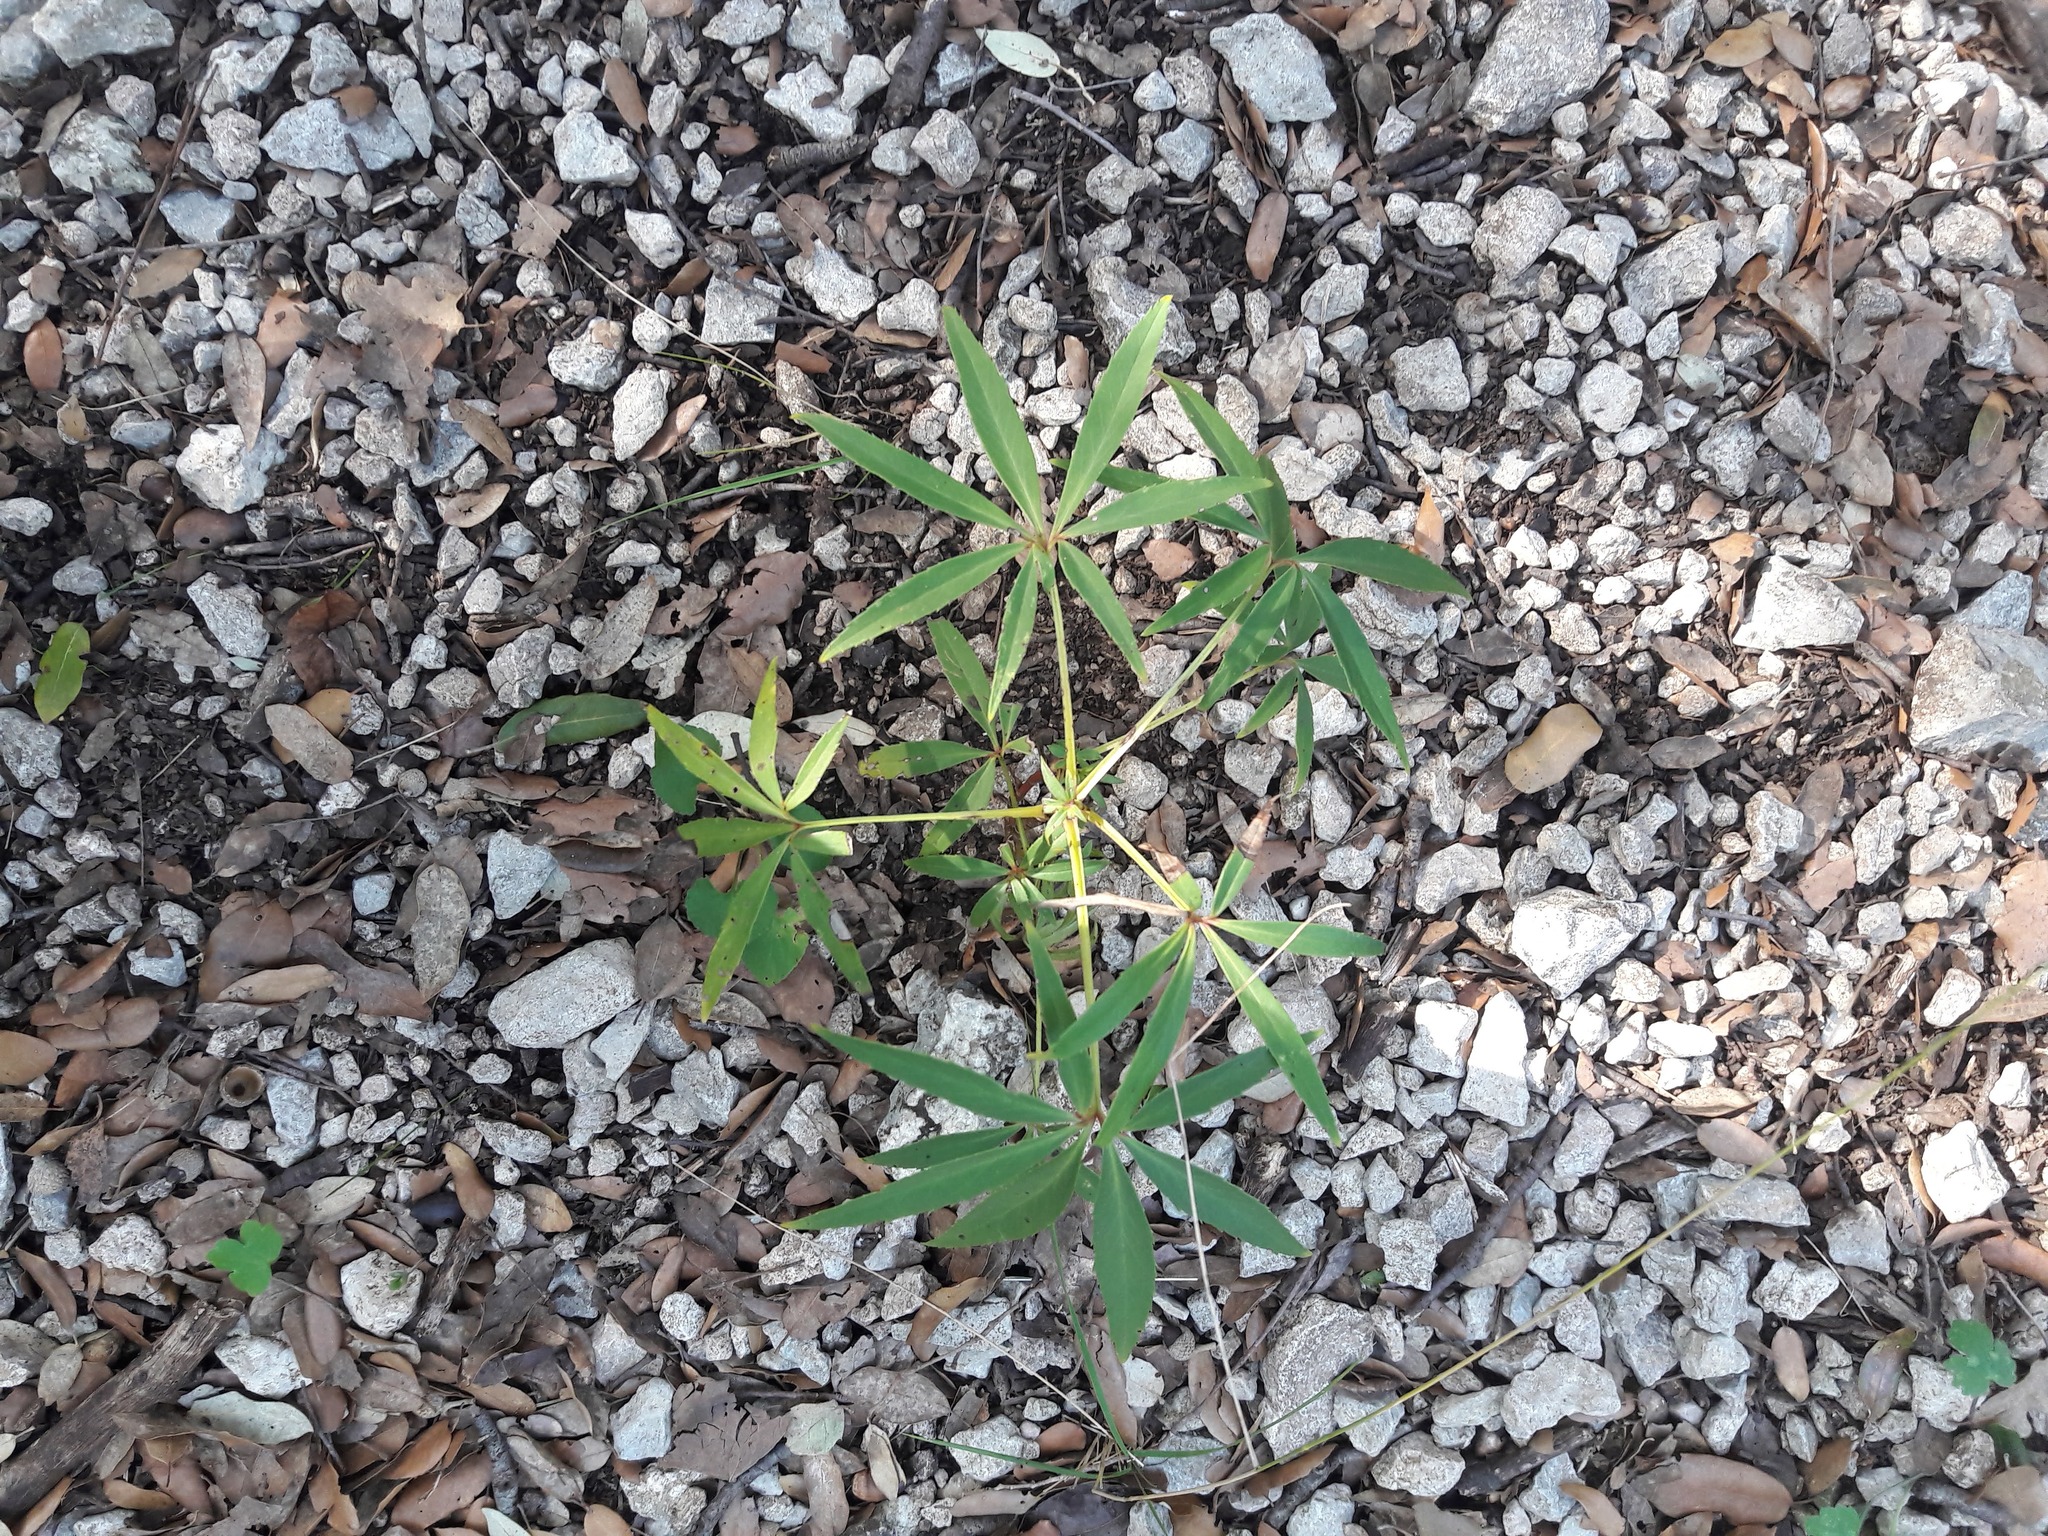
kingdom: Plantae
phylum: Tracheophyta
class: Magnoliopsida
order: Ranunculales
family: Ranunculaceae
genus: Helleborus
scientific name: Helleborus foetidus
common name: Stinking hellebore
